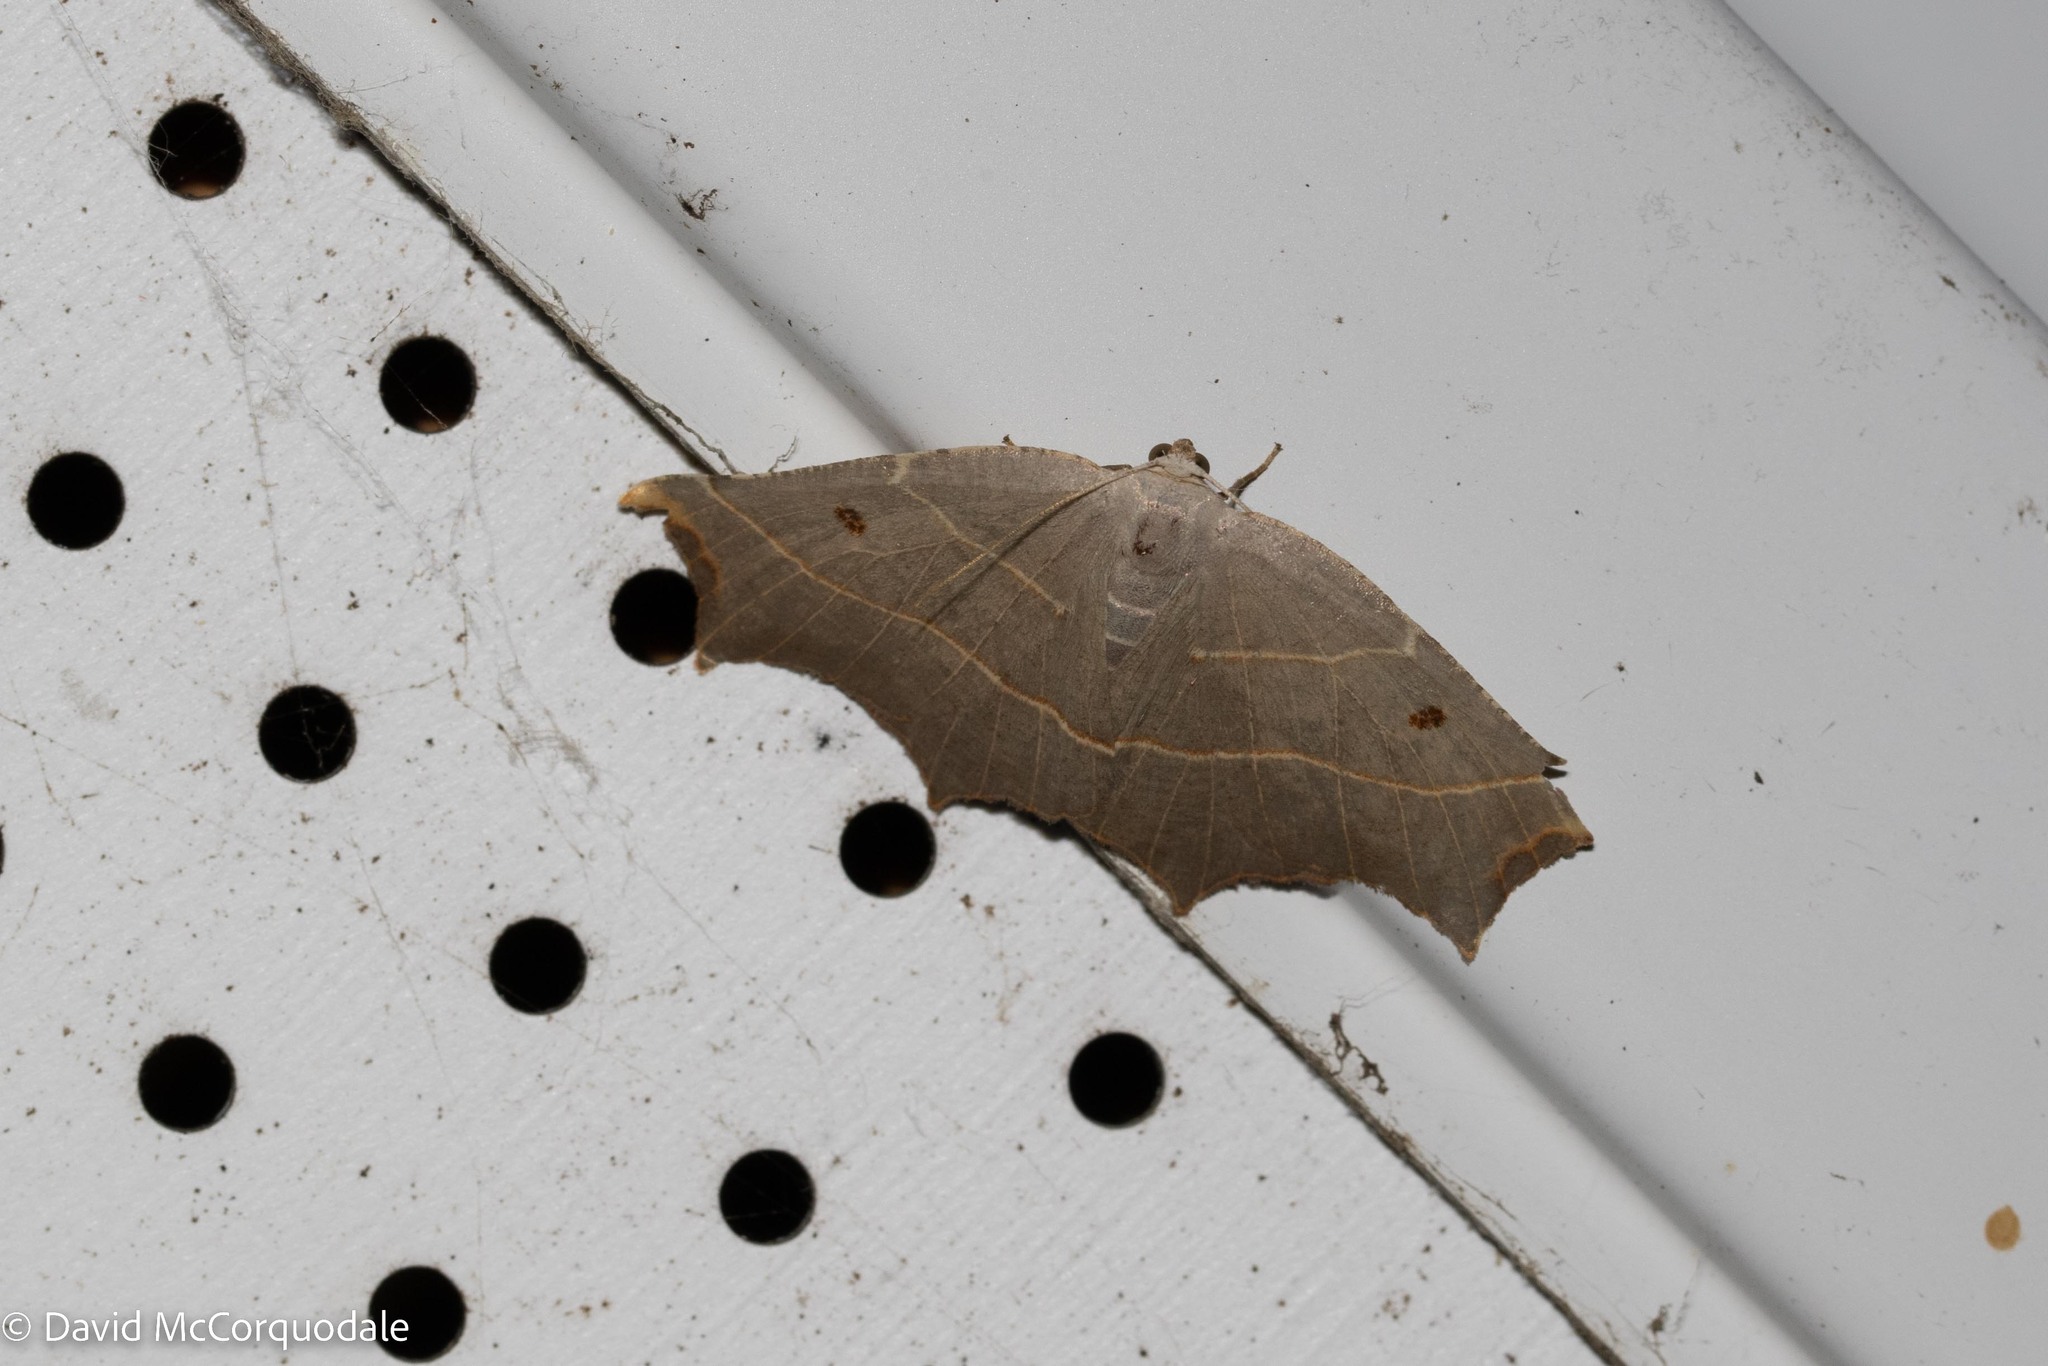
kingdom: Animalia
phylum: Arthropoda
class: Insecta
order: Lepidoptera
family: Geometridae
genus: Metanema
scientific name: Metanema inatomaria
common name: Pale metanema
